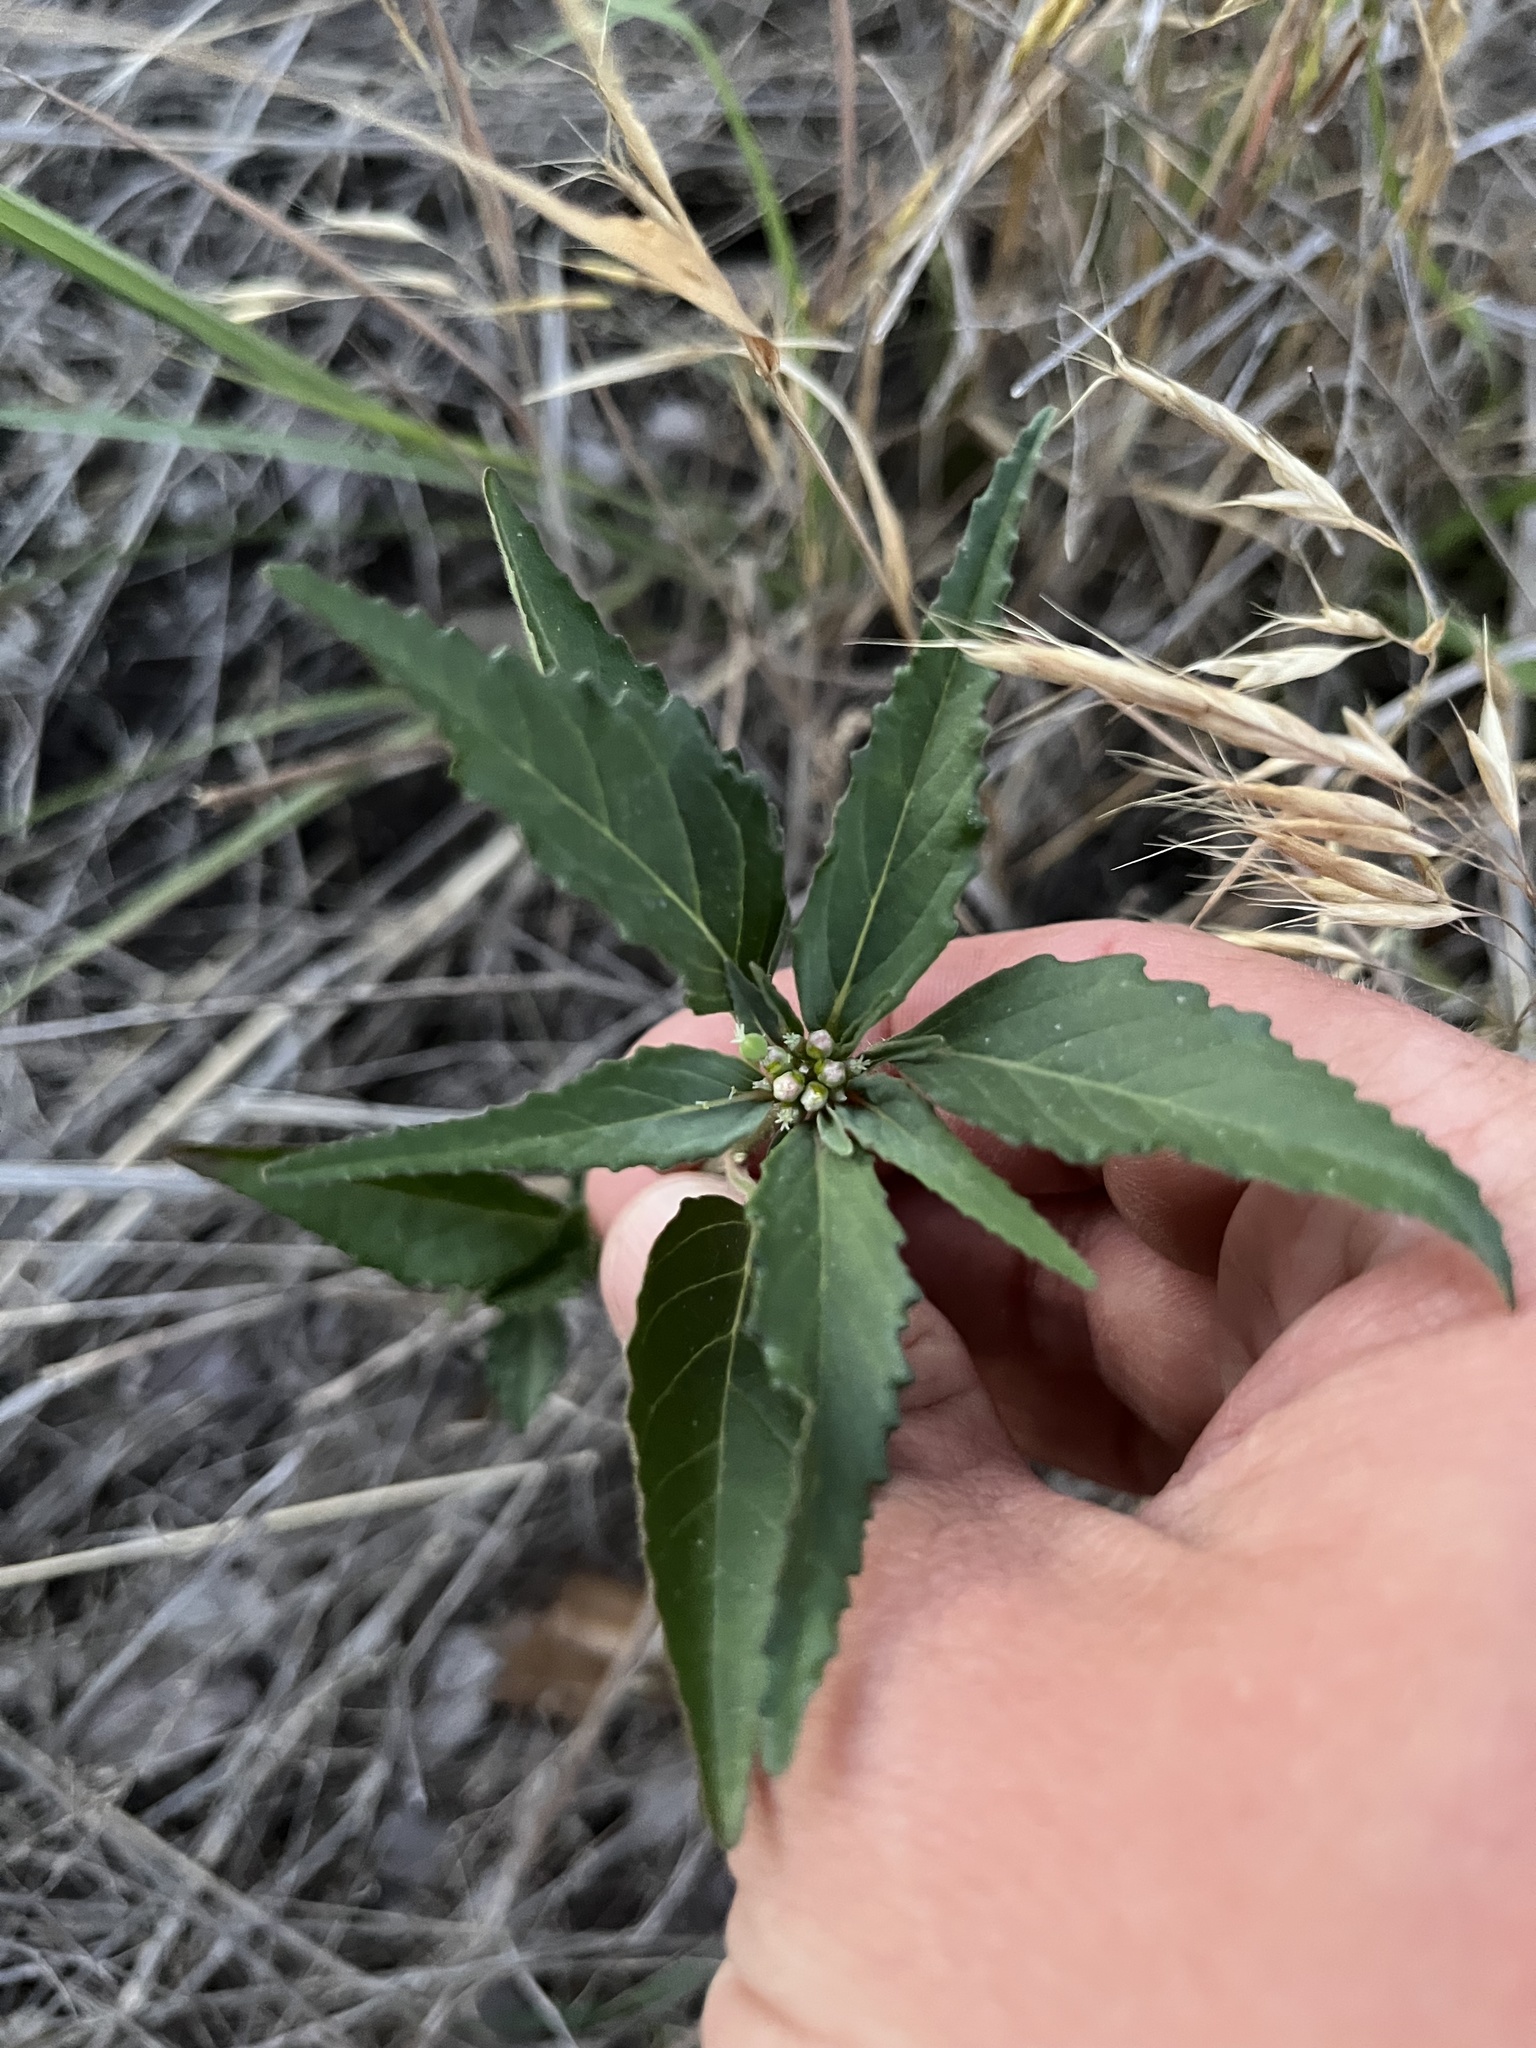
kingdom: Plantae
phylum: Tracheophyta
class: Magnoliopsida
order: Malpighiales
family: Euphorbiaceae
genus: Euphorbia
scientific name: Euphorbia dentata
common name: Dentate spurge
